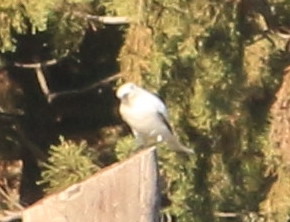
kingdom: Animalia
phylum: Chordata
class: Aves
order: Passeriformes
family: Tyrannidae
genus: Xolmis
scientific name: Xolmis irupero
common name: White monjita
